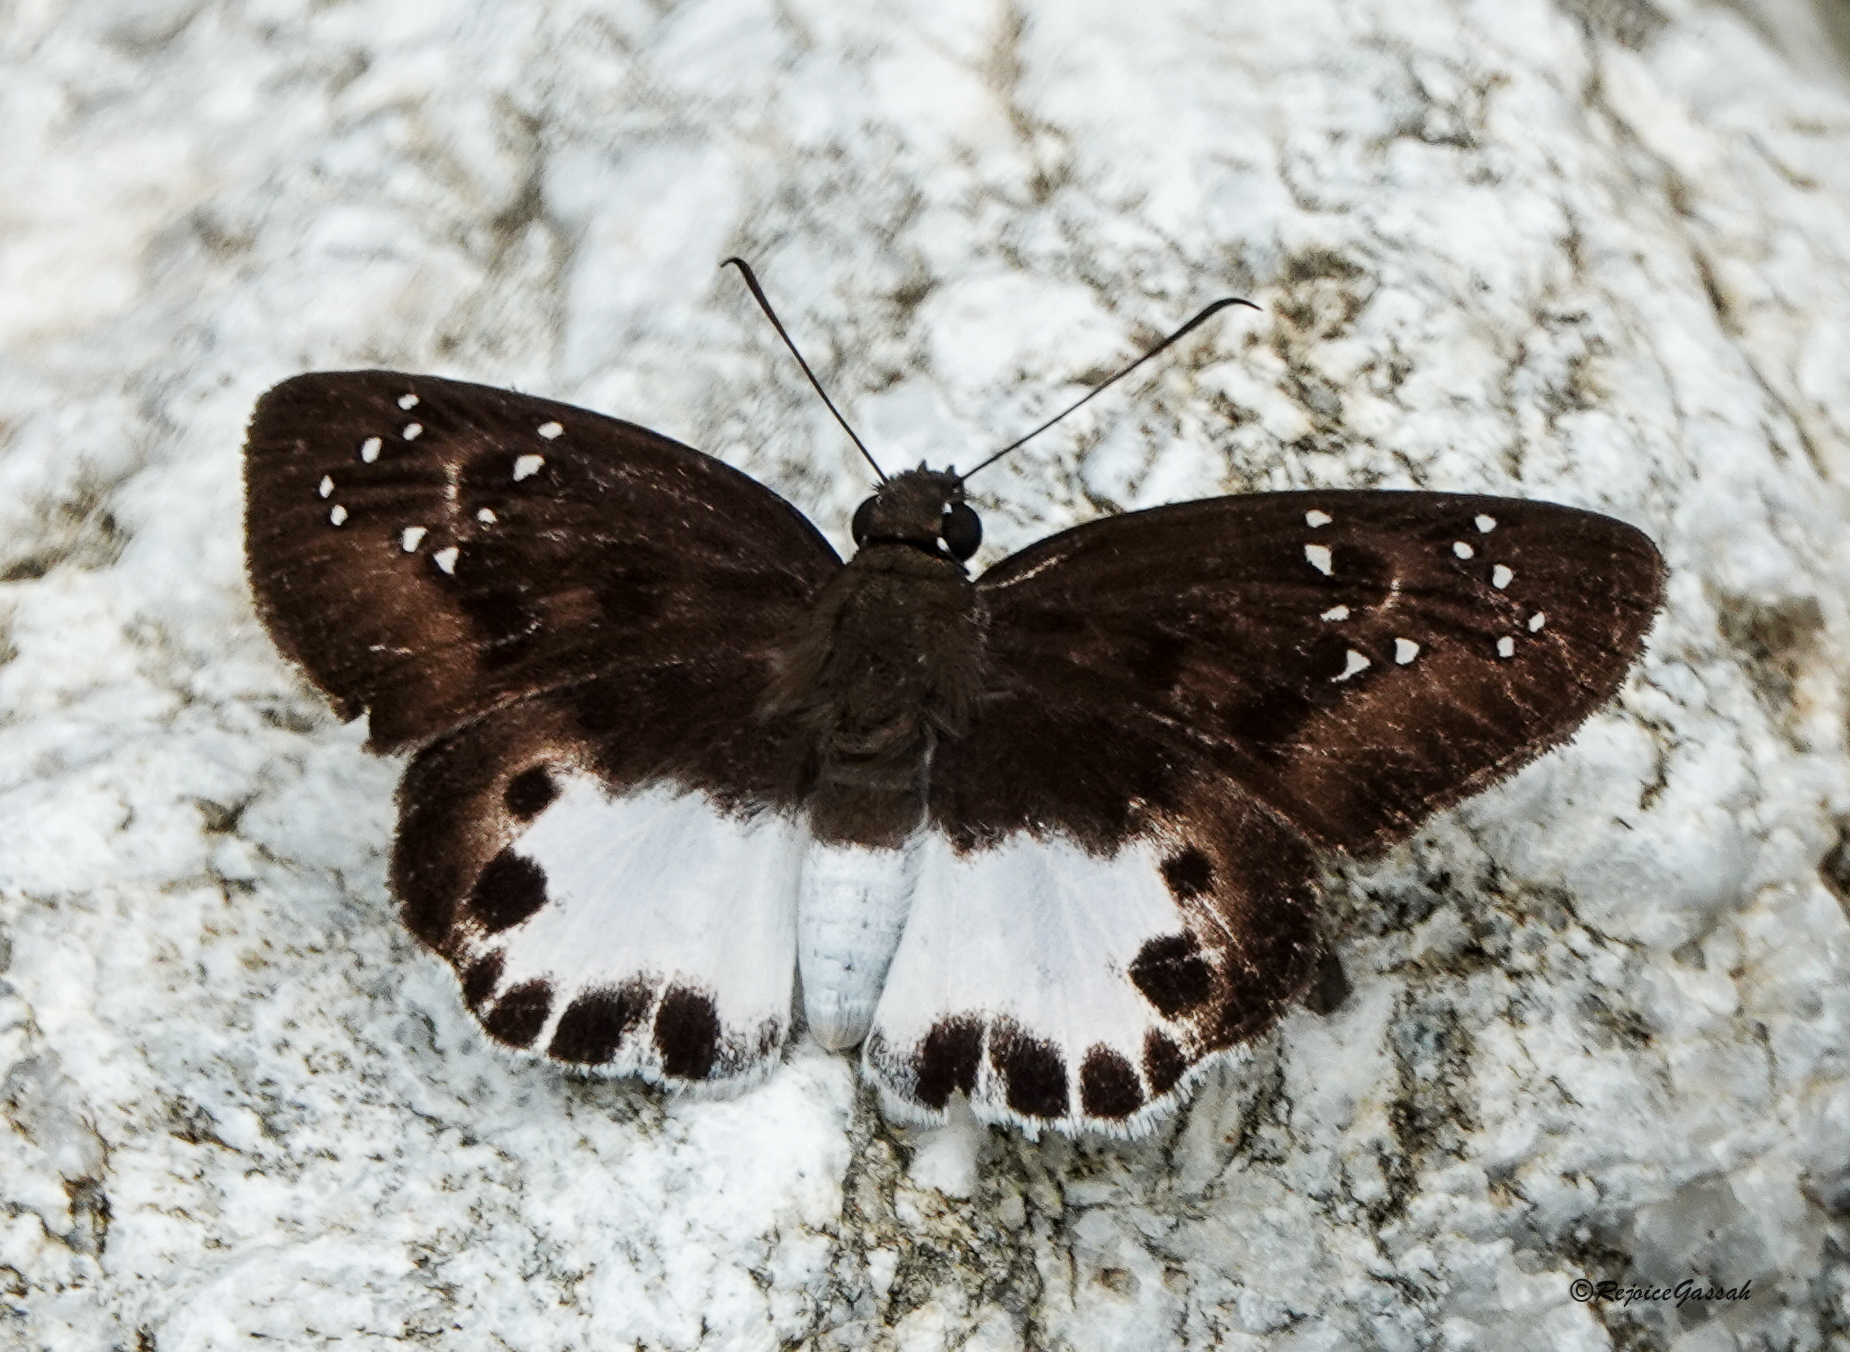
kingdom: Animalia
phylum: Arthropoda
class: Insecta
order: Lepidoptera
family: Hesperiidae
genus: Tagiades
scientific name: Tagiades litigiosa
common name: Water snow flat
